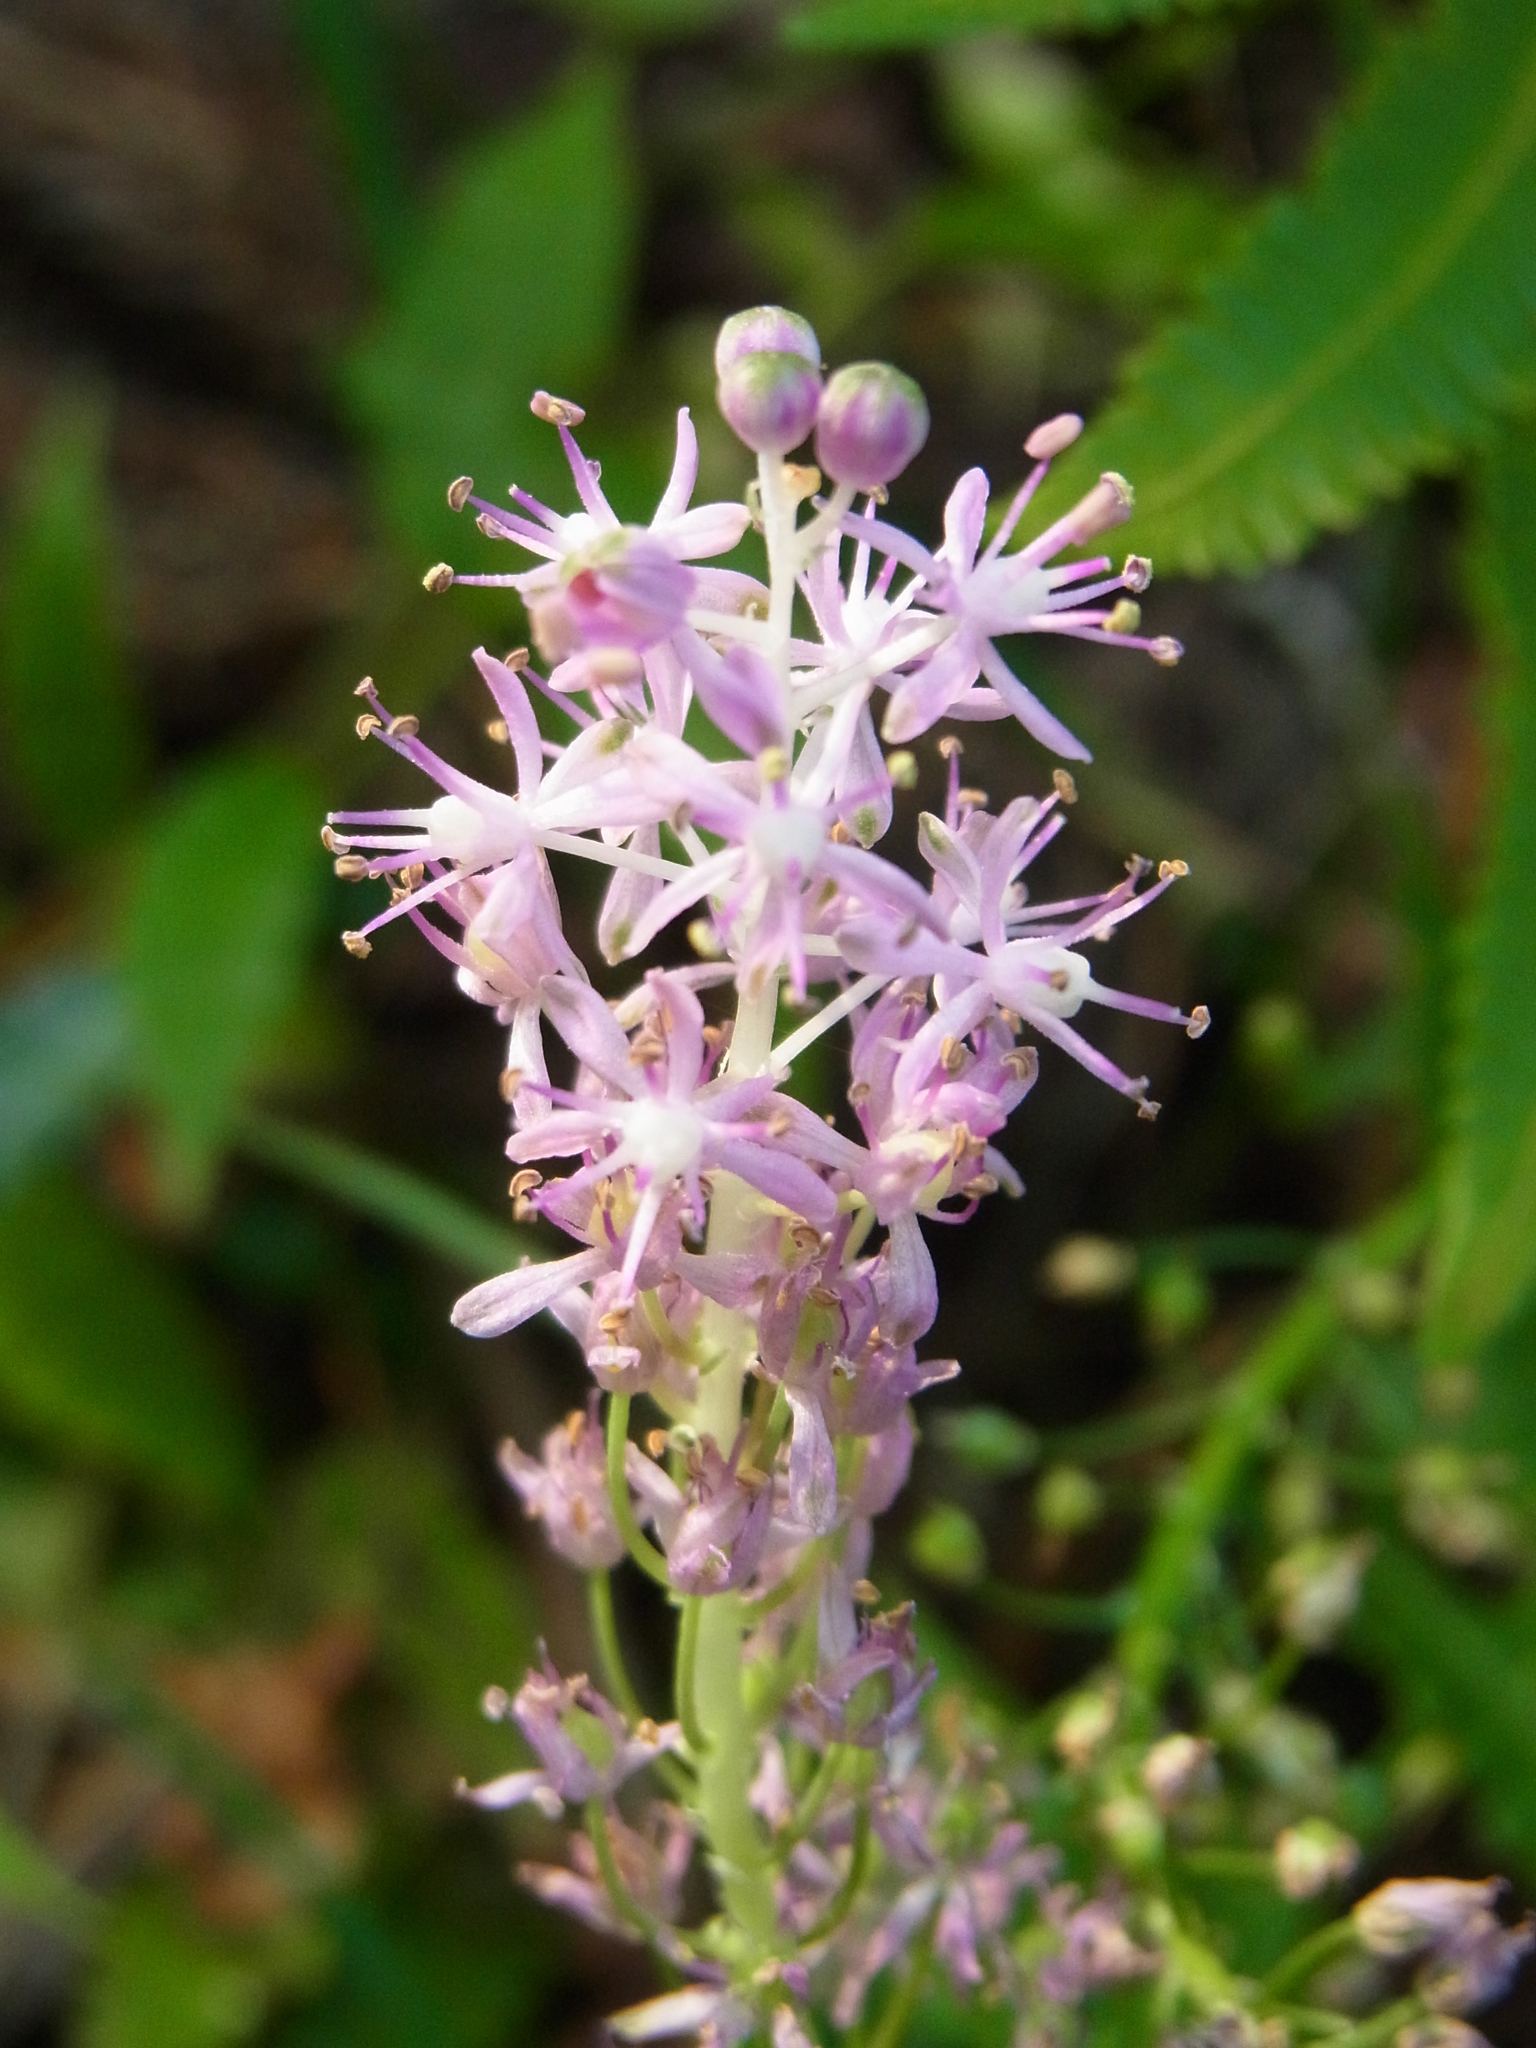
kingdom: Plantae
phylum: Tracheophyta
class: Liliopsida
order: Asparagales
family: Asparagaceae
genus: Barnardia
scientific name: Barnardia japonica
